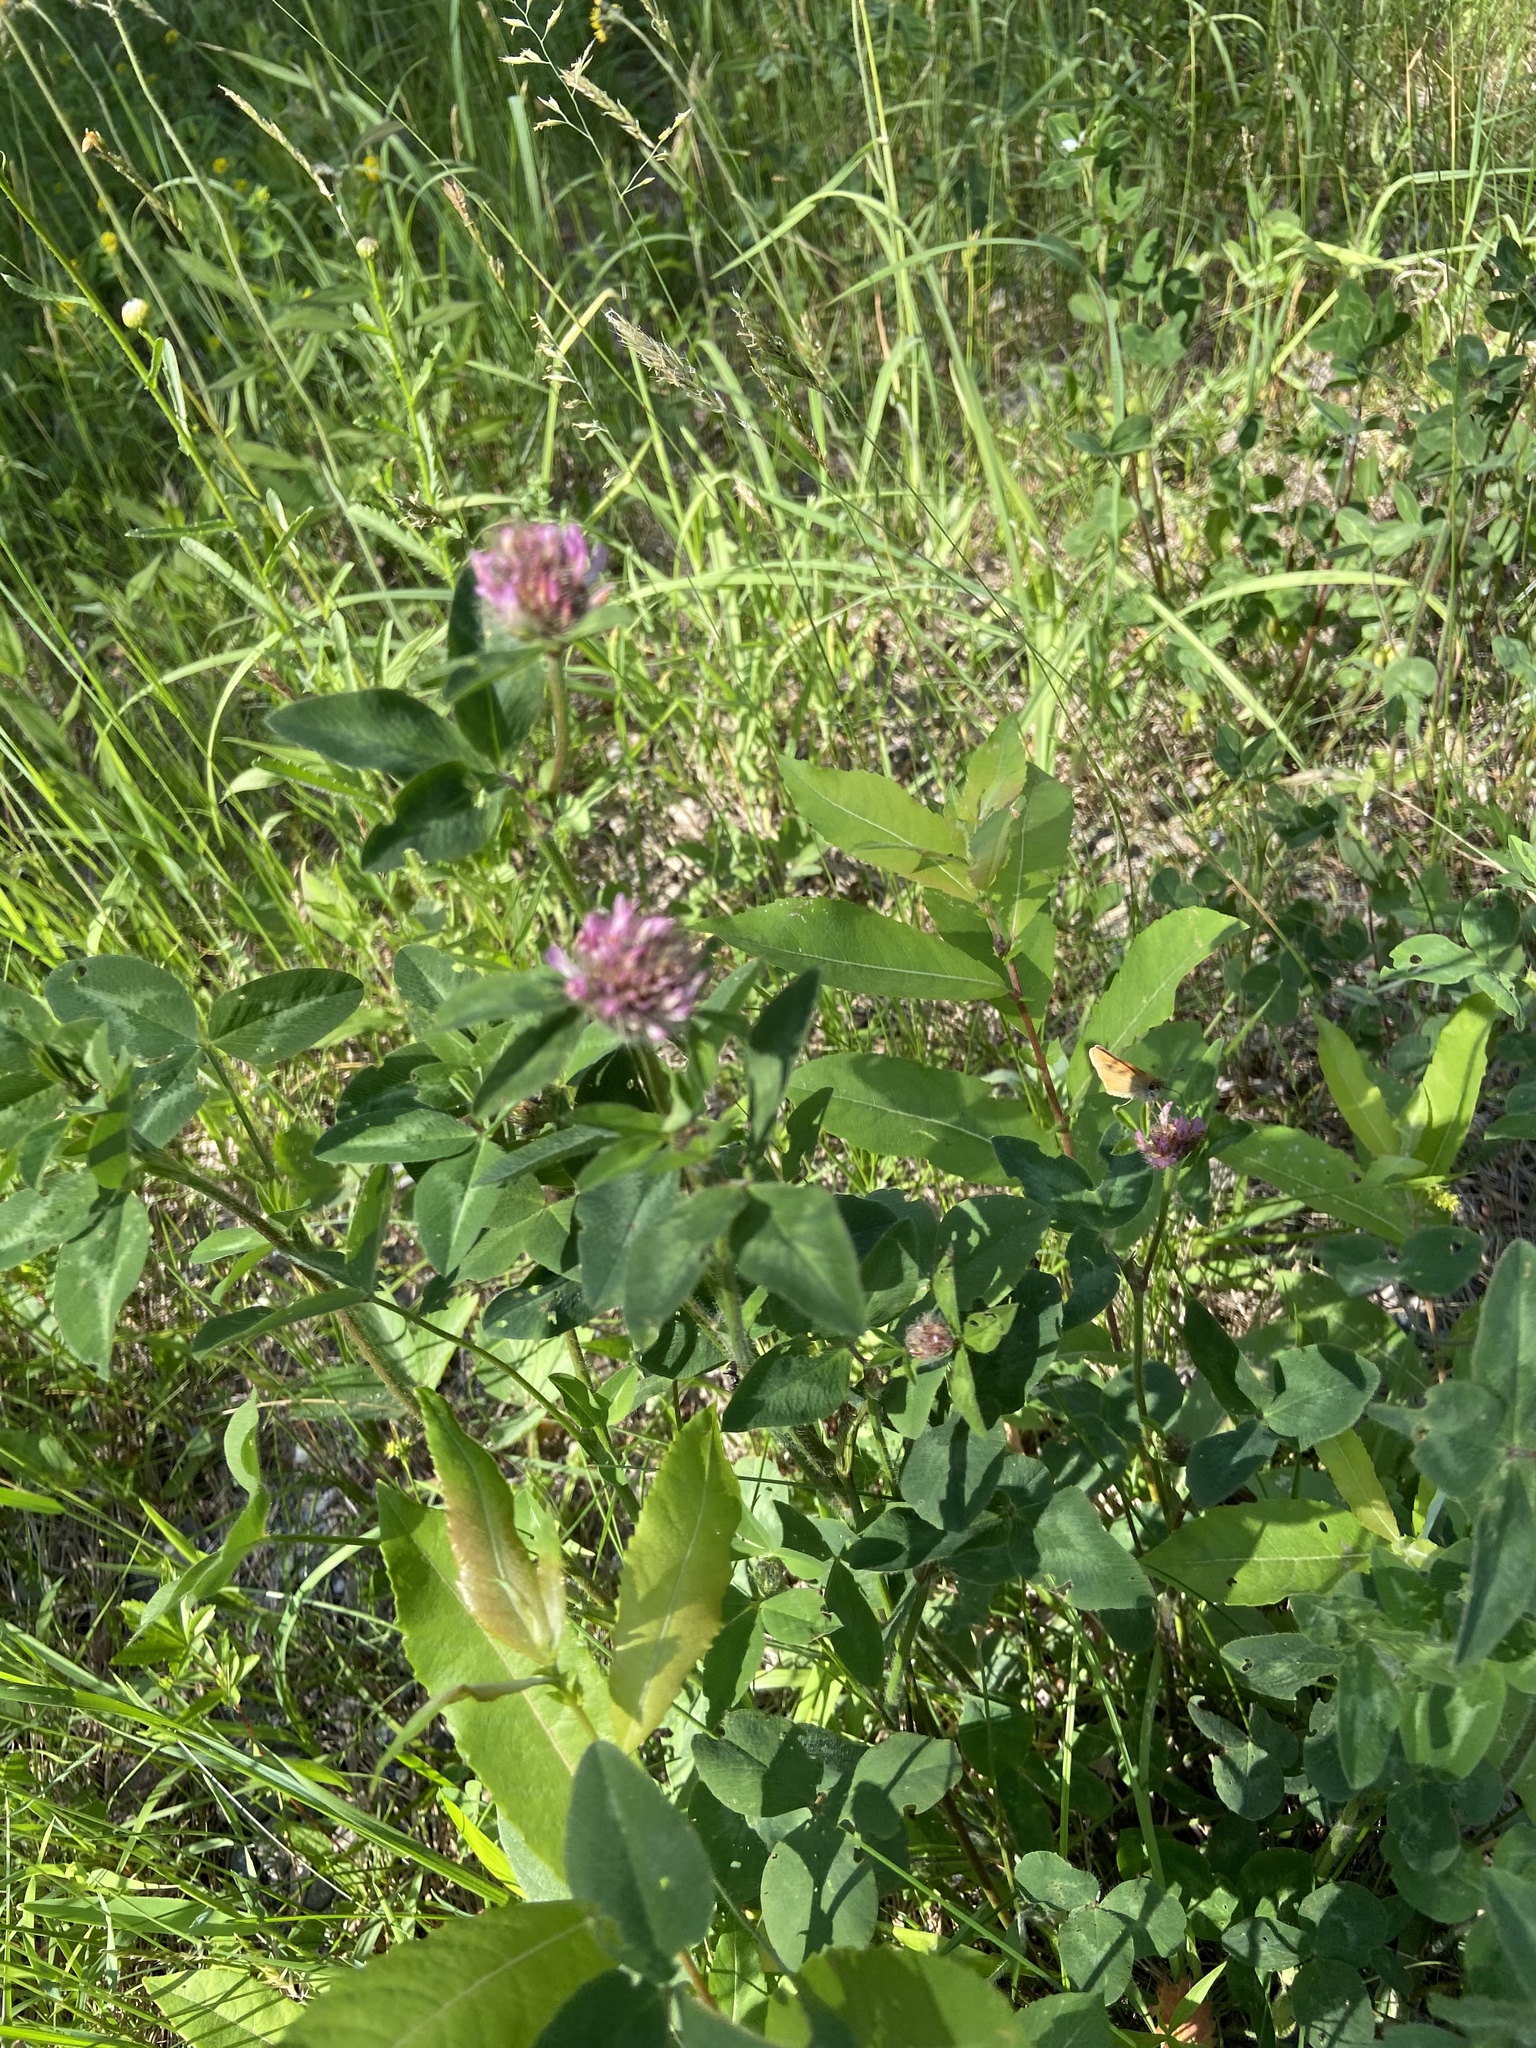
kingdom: Plantae
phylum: Tracheophyta
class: Magnoliopsida
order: Fabales
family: Fabaceae
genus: Trifolium
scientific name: Trifolium pratense
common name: Red clover
